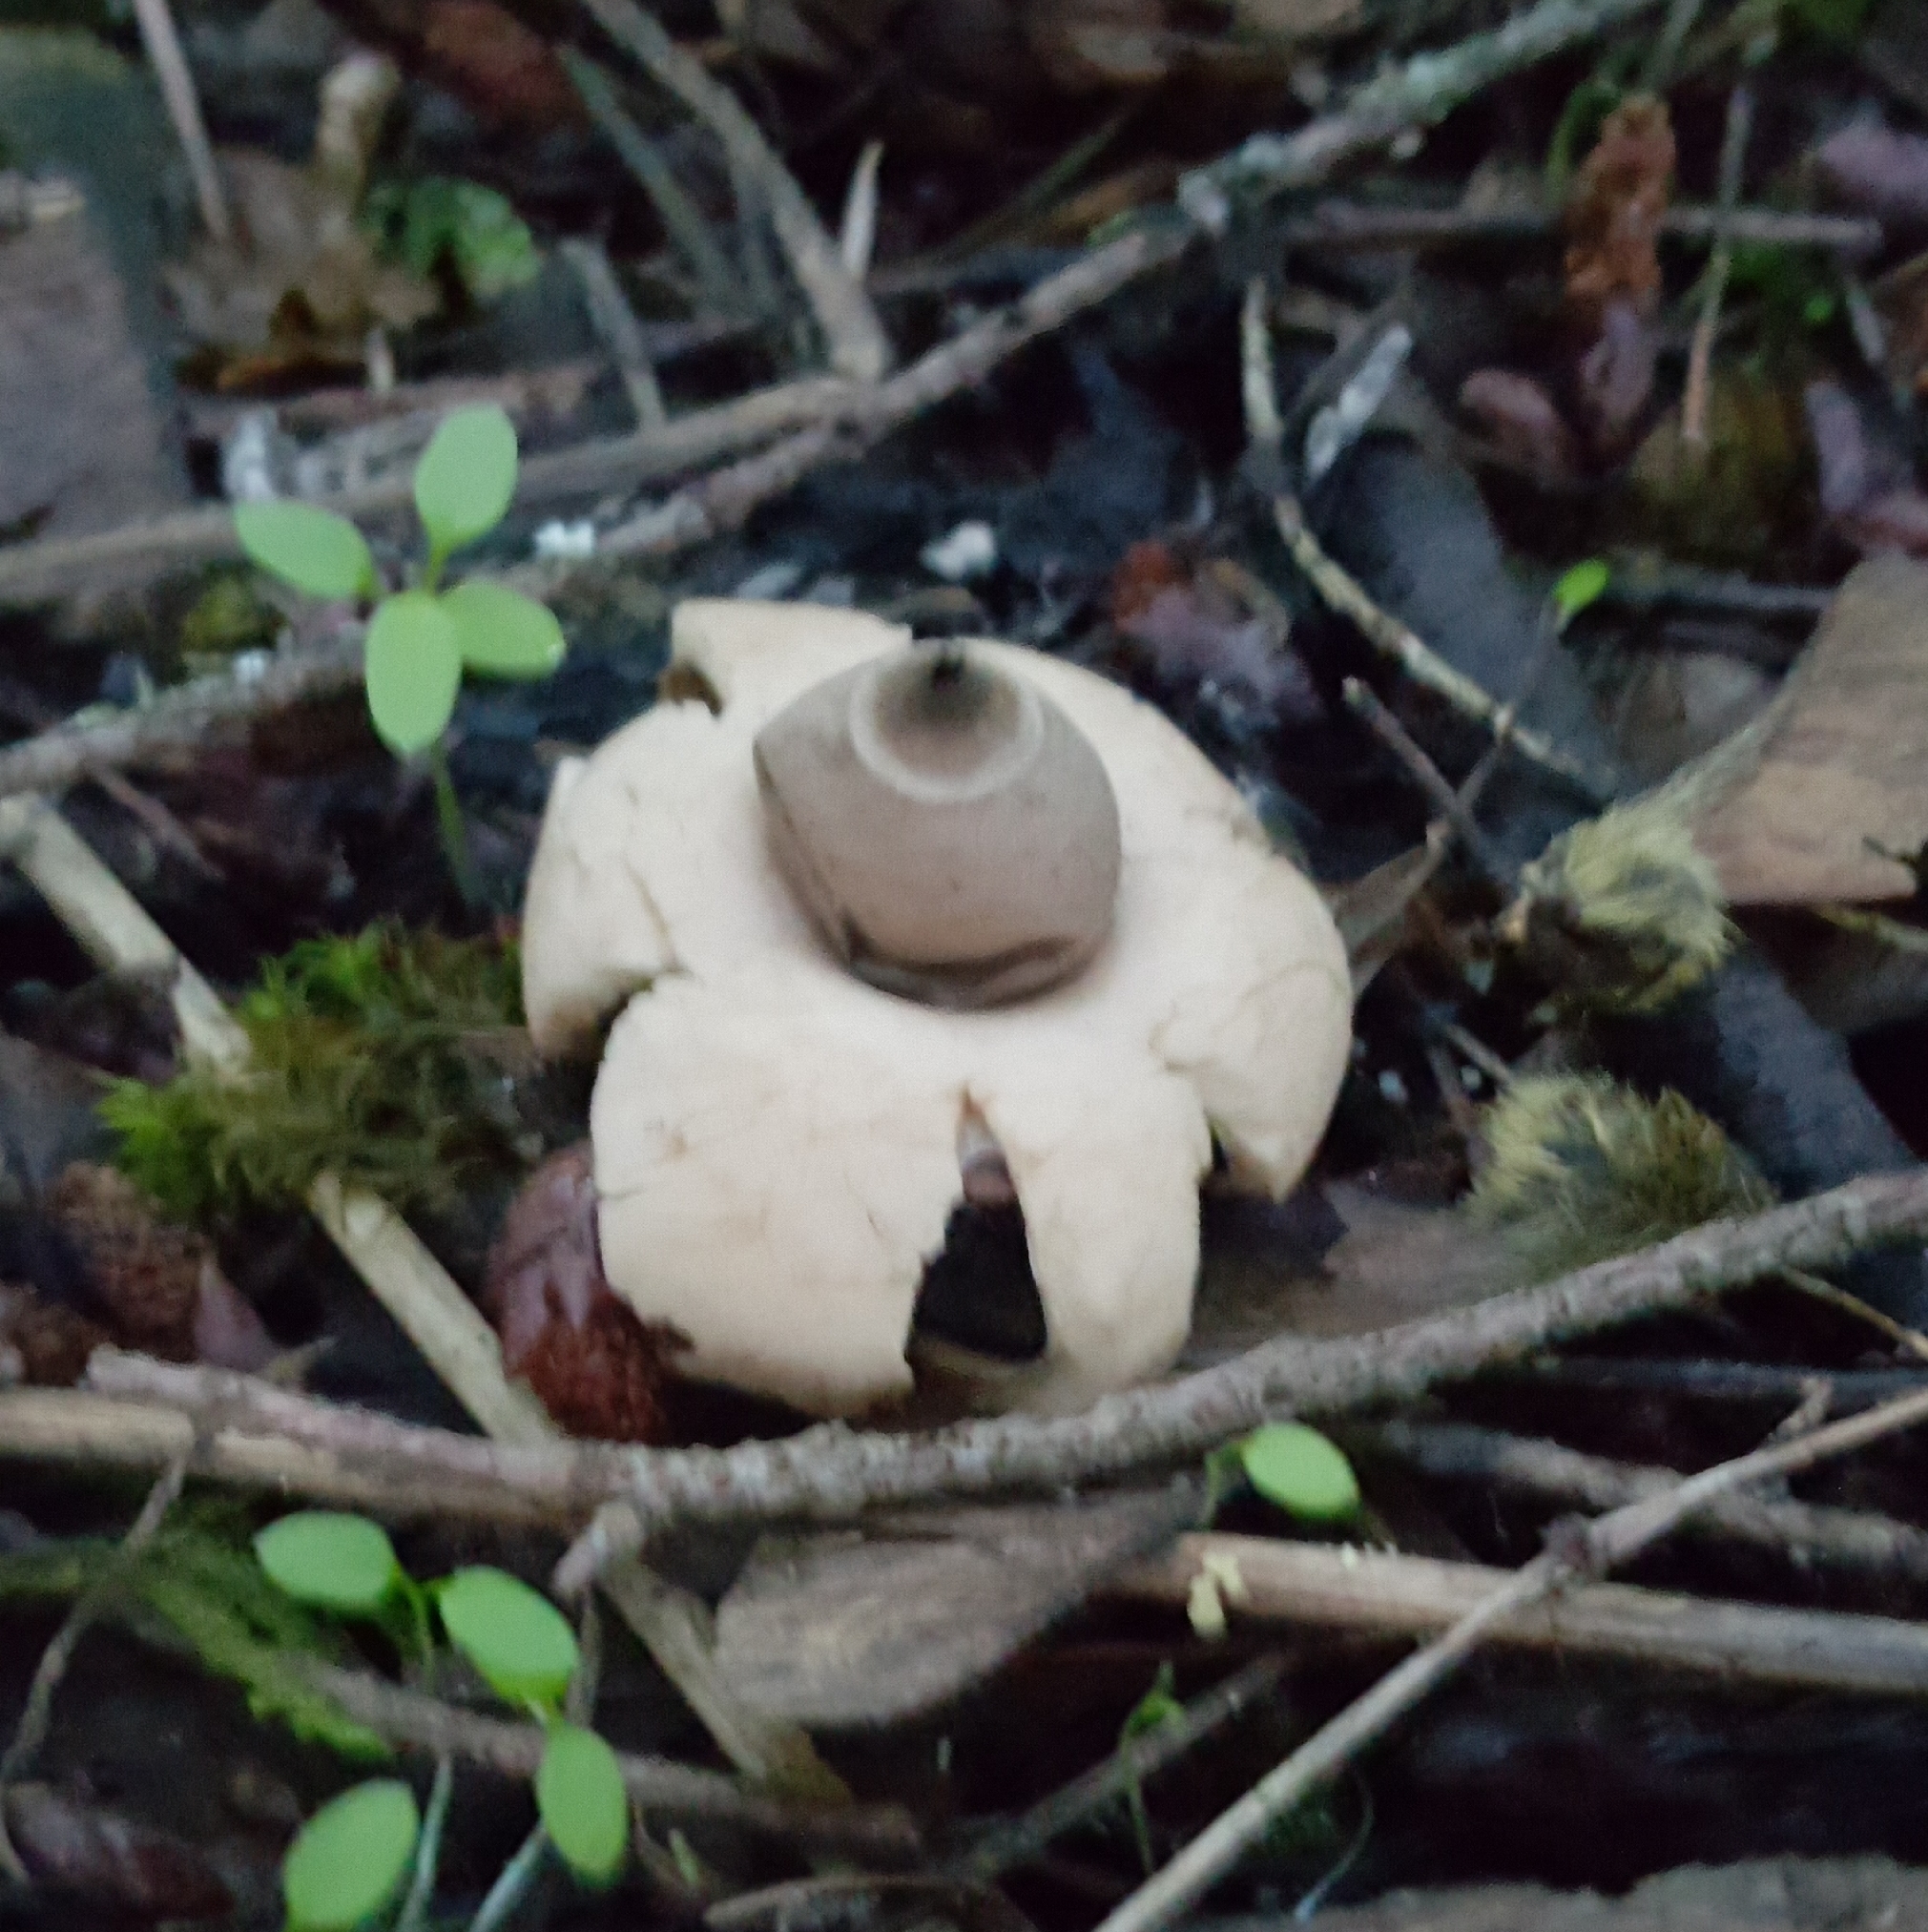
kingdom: Fungi
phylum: Basidiomycota
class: Agaricomycetes
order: Geastrales
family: Geastraceae
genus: Geastrum
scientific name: Geastrum saccatum
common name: Rounded earthstar
